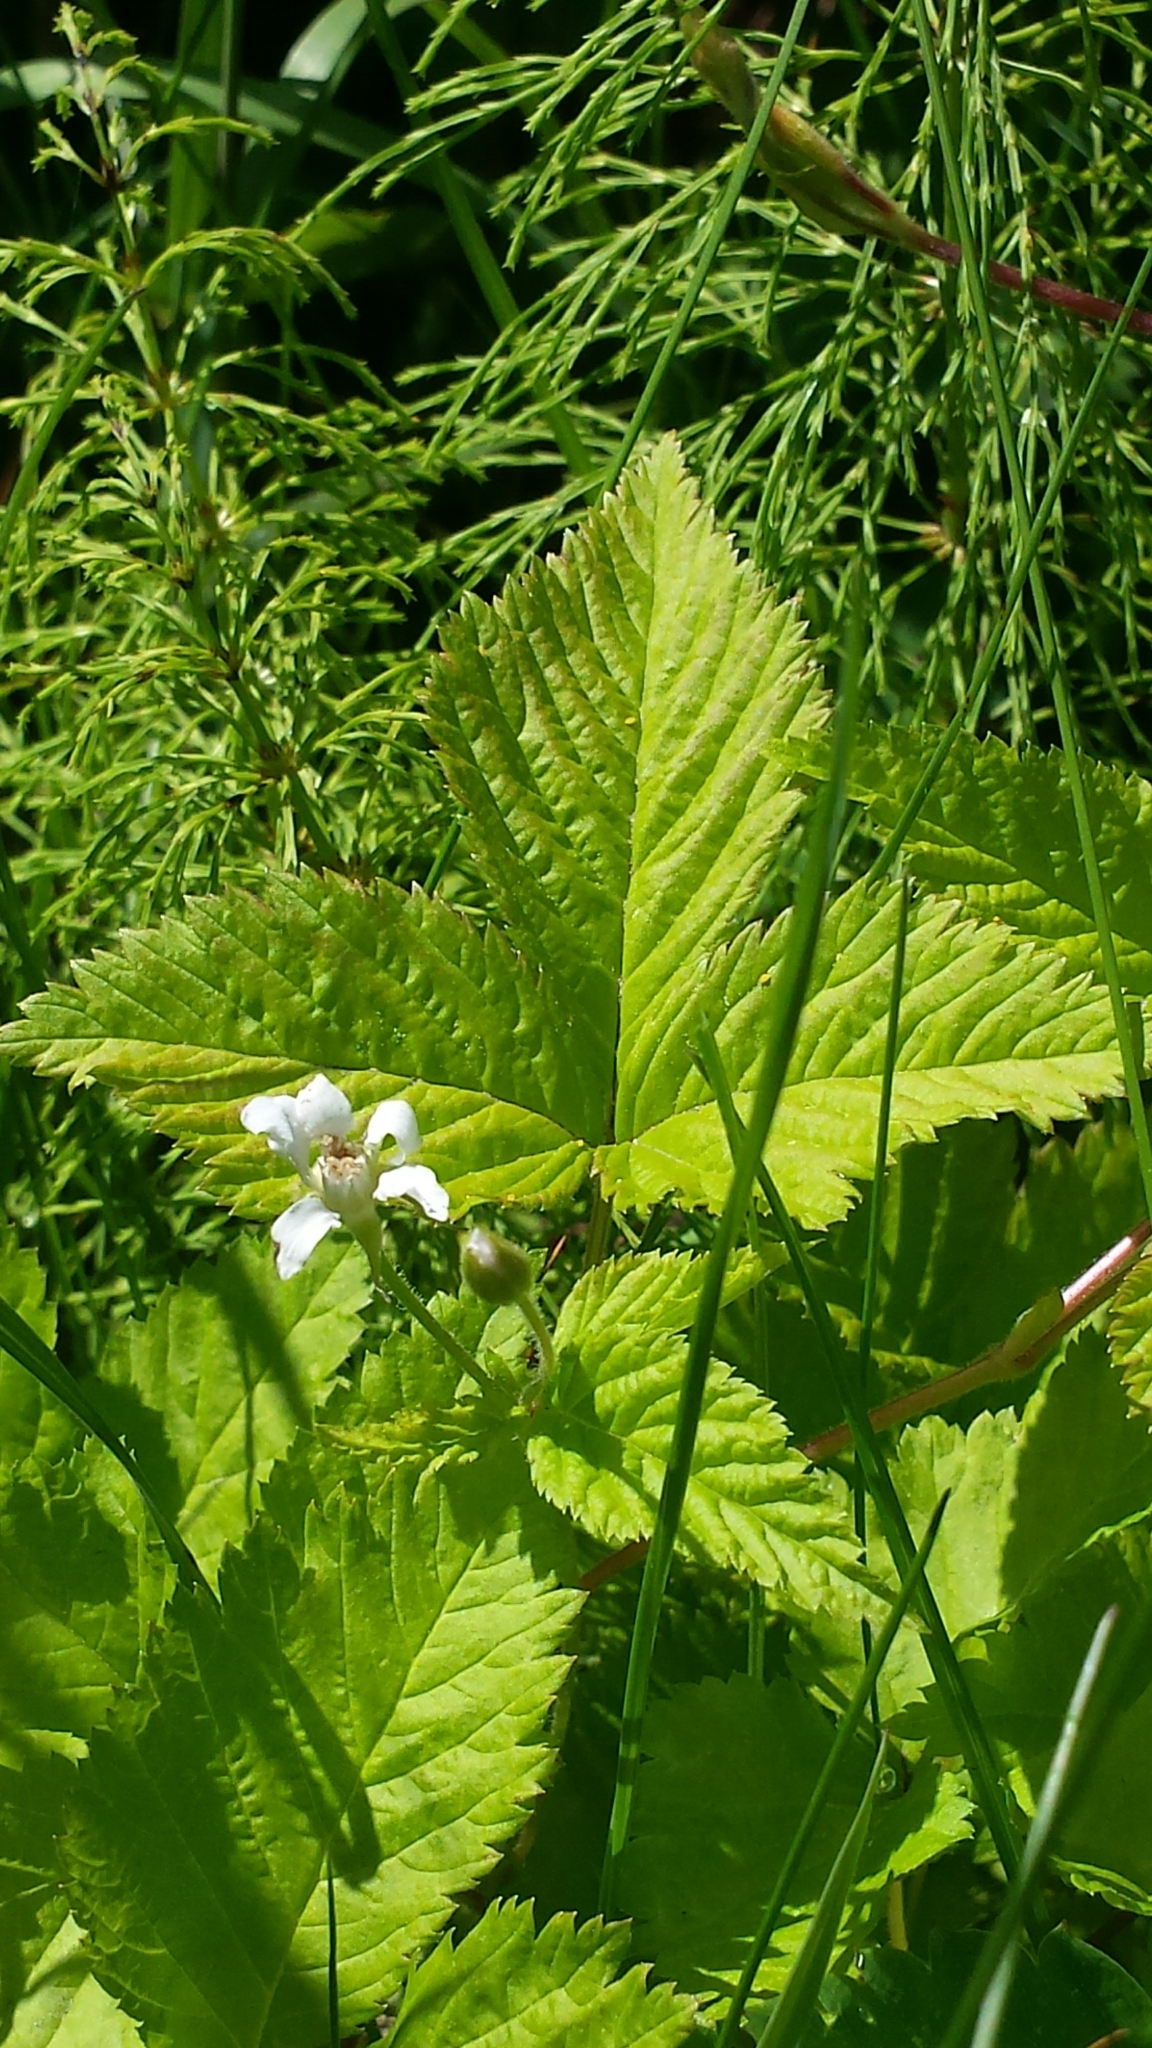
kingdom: Plantae
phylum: Tracheophyta
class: Magnoliopsida
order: Rosales
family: Rosaceae
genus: Rubus
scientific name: Rubus pubescens
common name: Dwarf raspberry
